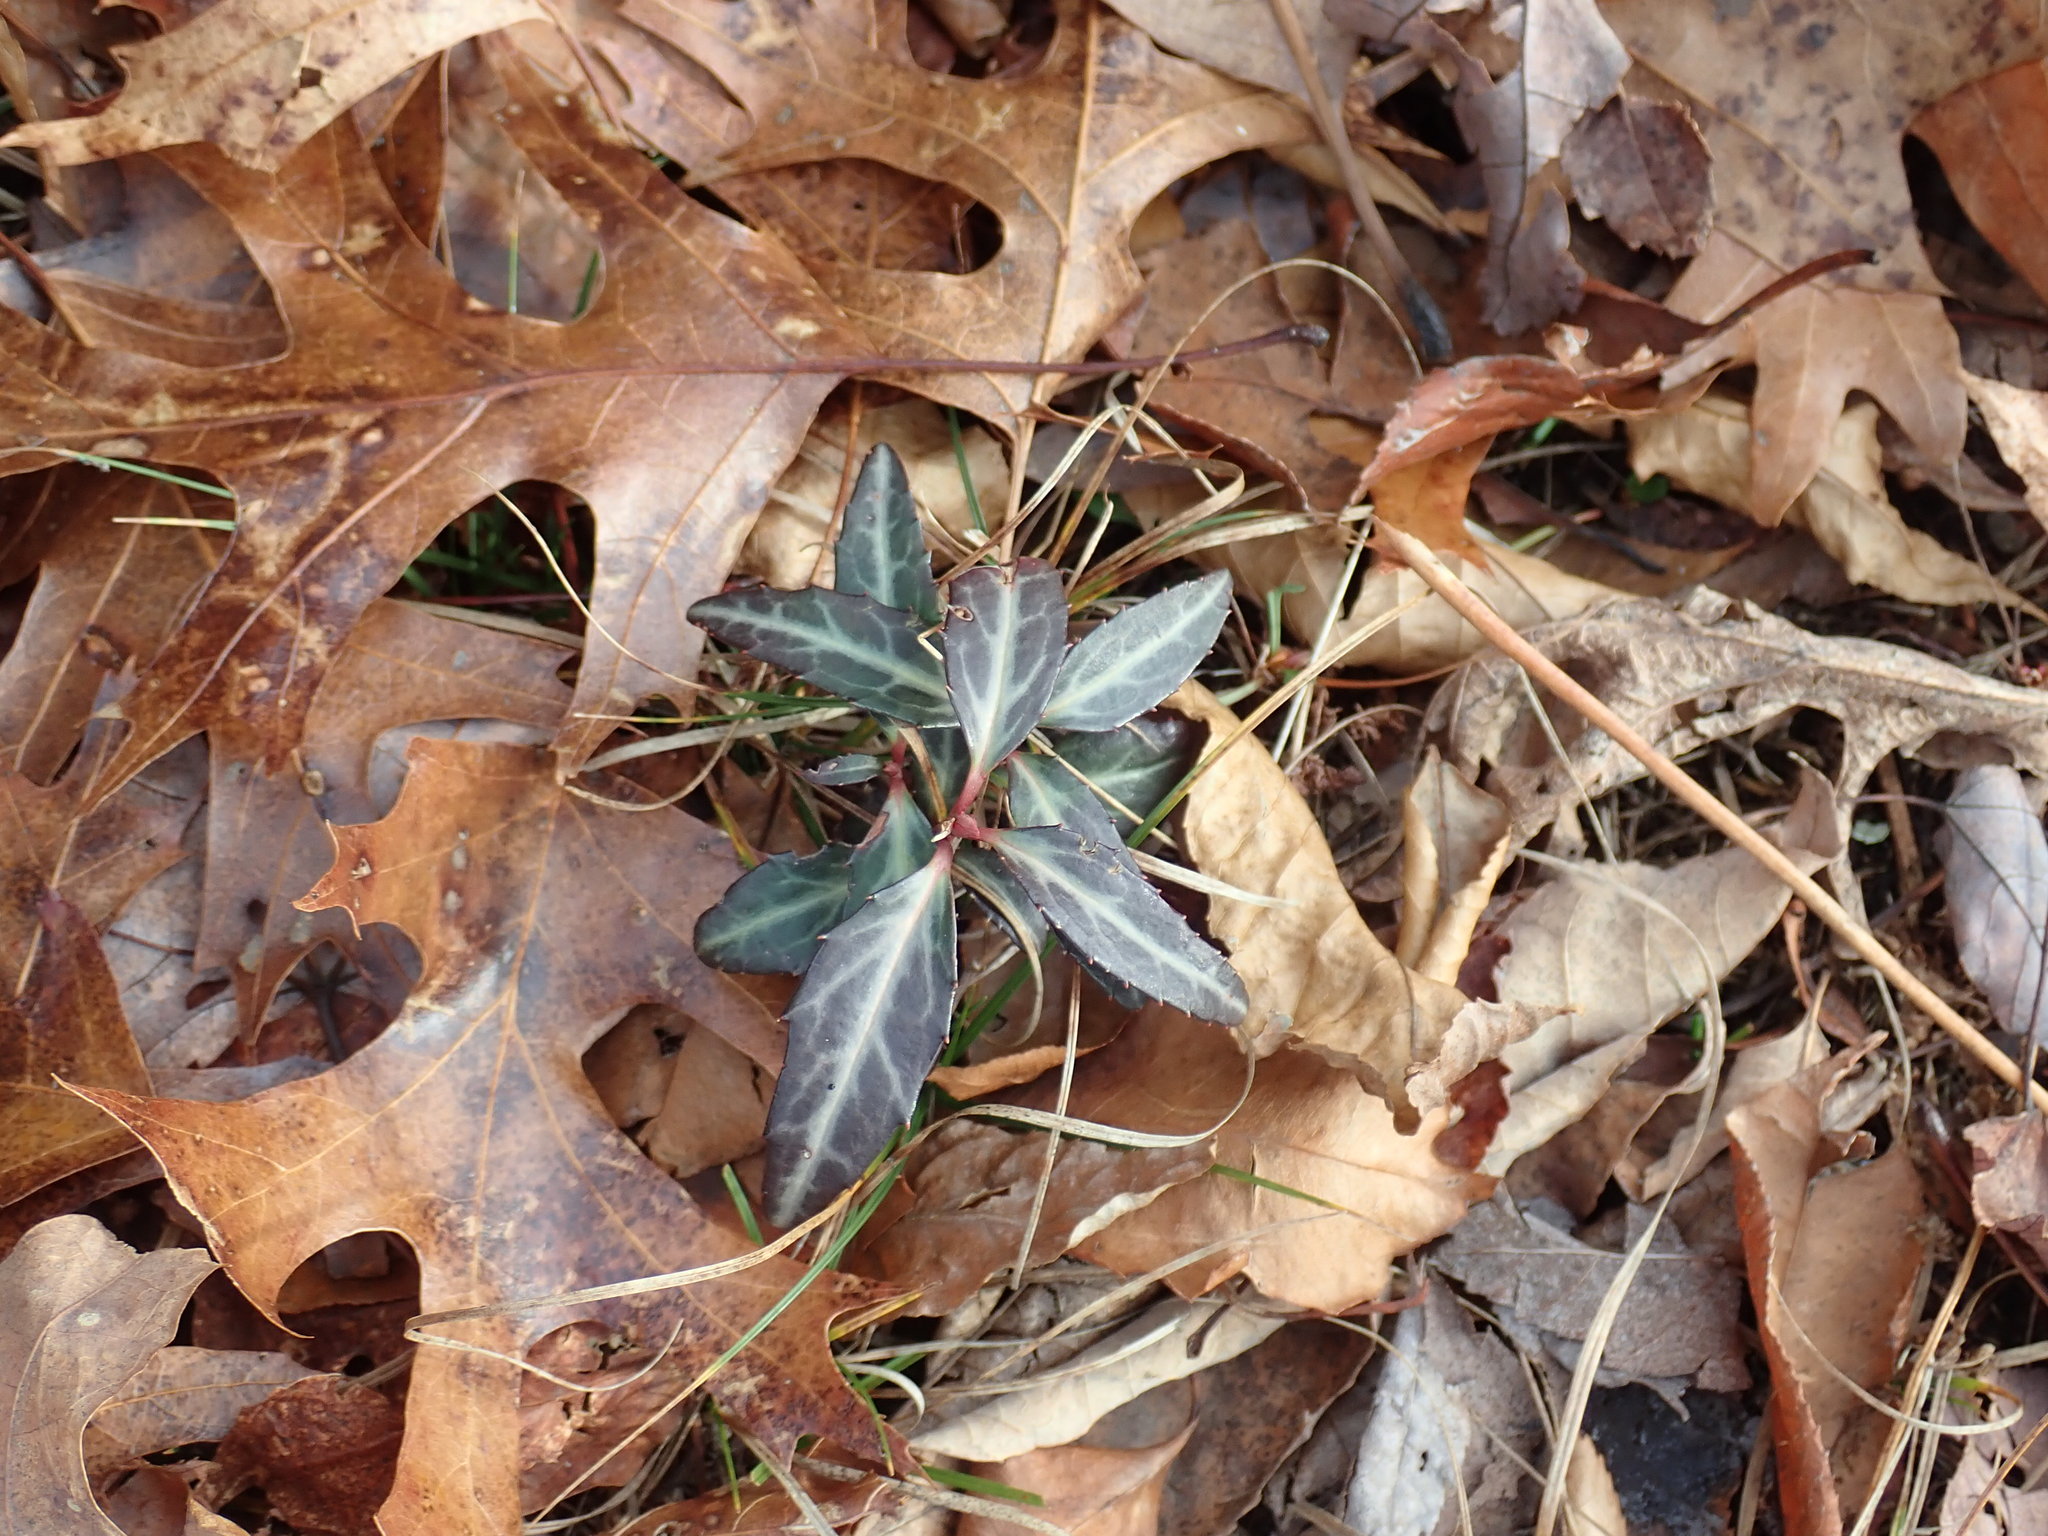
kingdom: Plantae
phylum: Tracheophyta
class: Magnoliopsida
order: Ericales
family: Ericaceae
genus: Chimaphila
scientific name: Chimaphila maculata
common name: Spotted pipsissewa
